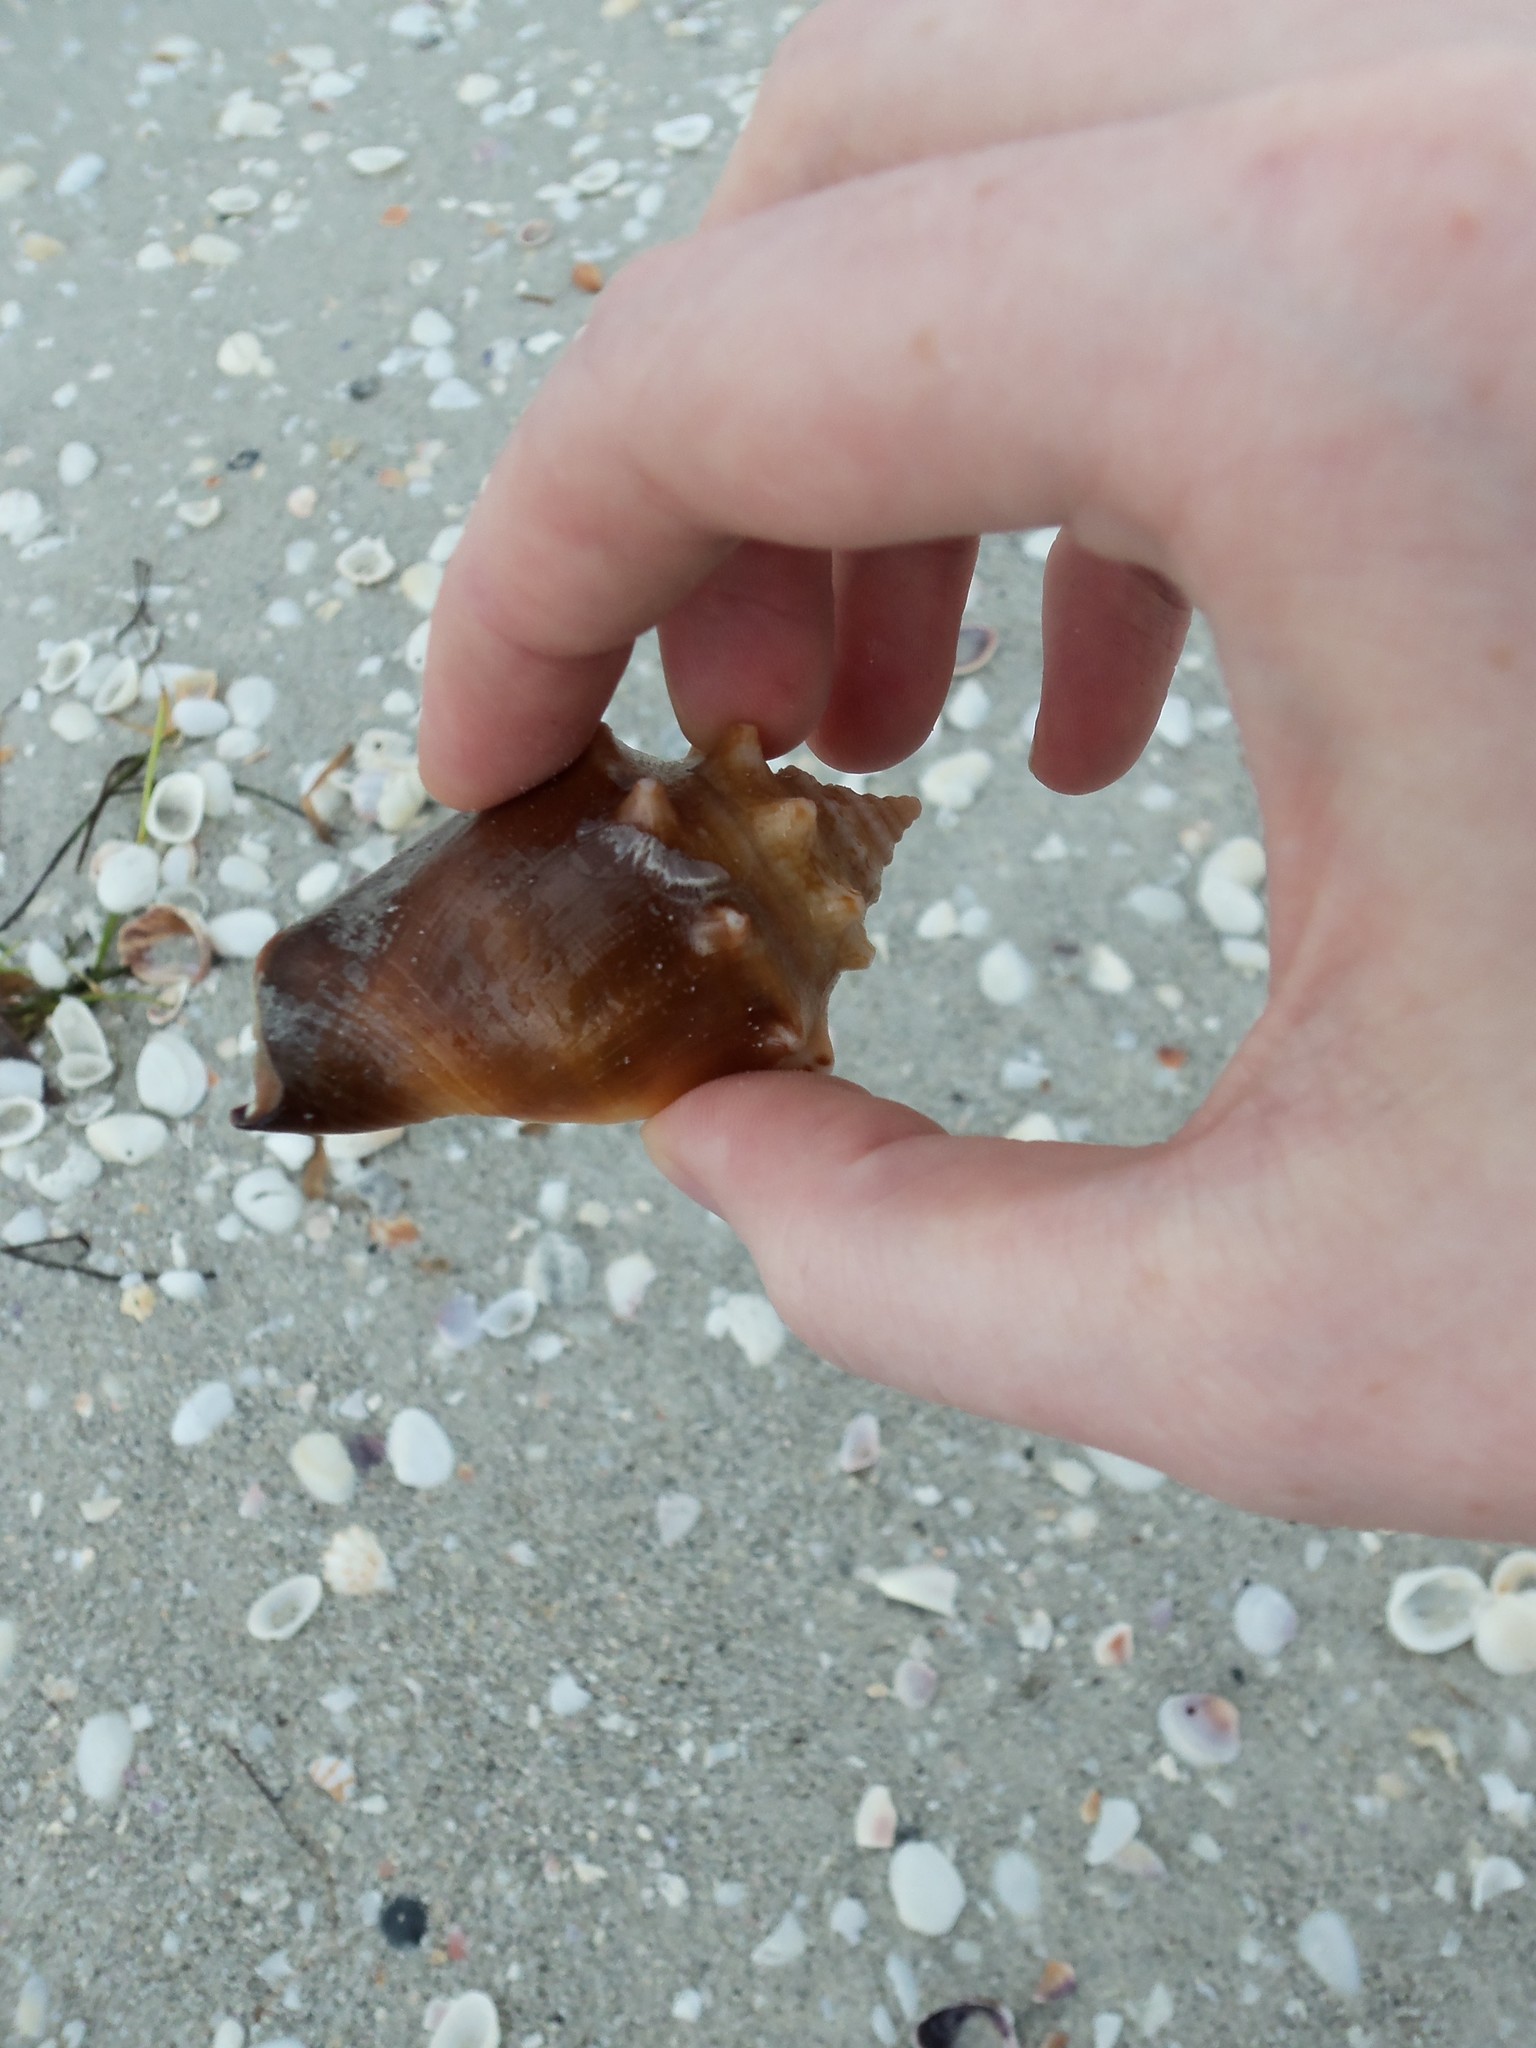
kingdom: Animalia
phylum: Mollusca
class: Gastropoda
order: Littorinimorpha
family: Strombidae
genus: Strombus
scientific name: Strombus alatus
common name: Florida fighting conch
